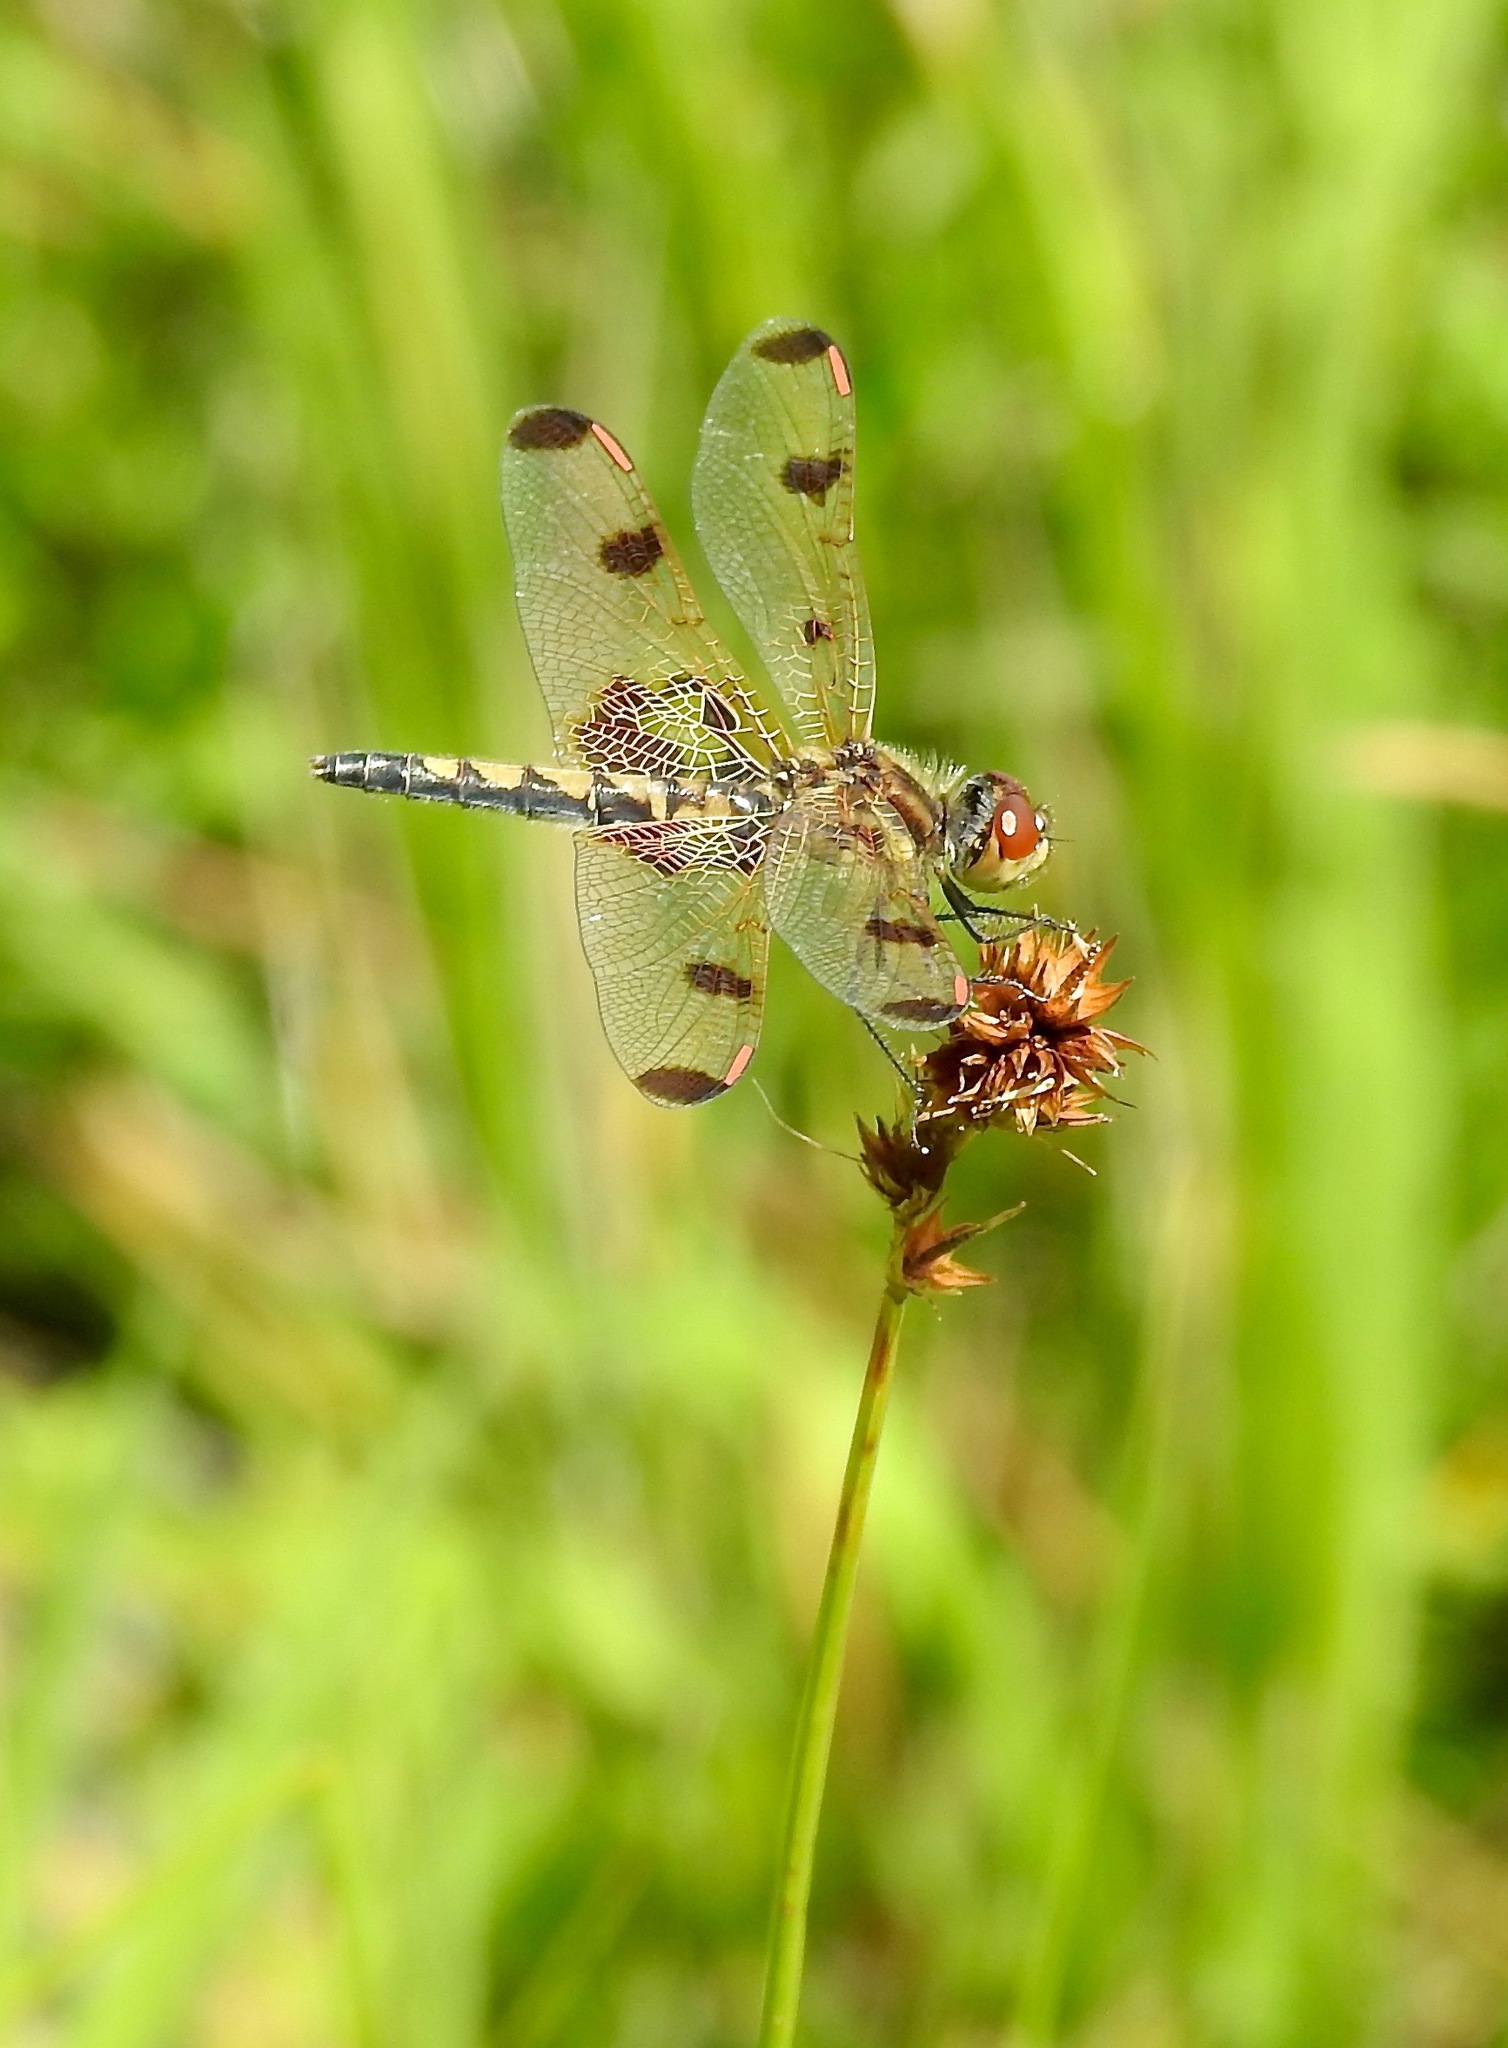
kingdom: Animalia
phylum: Arthropoda
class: Insecta
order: Odonata
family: Libellulidae
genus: Celithemis
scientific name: Celithemis elisa
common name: Calico pennant
